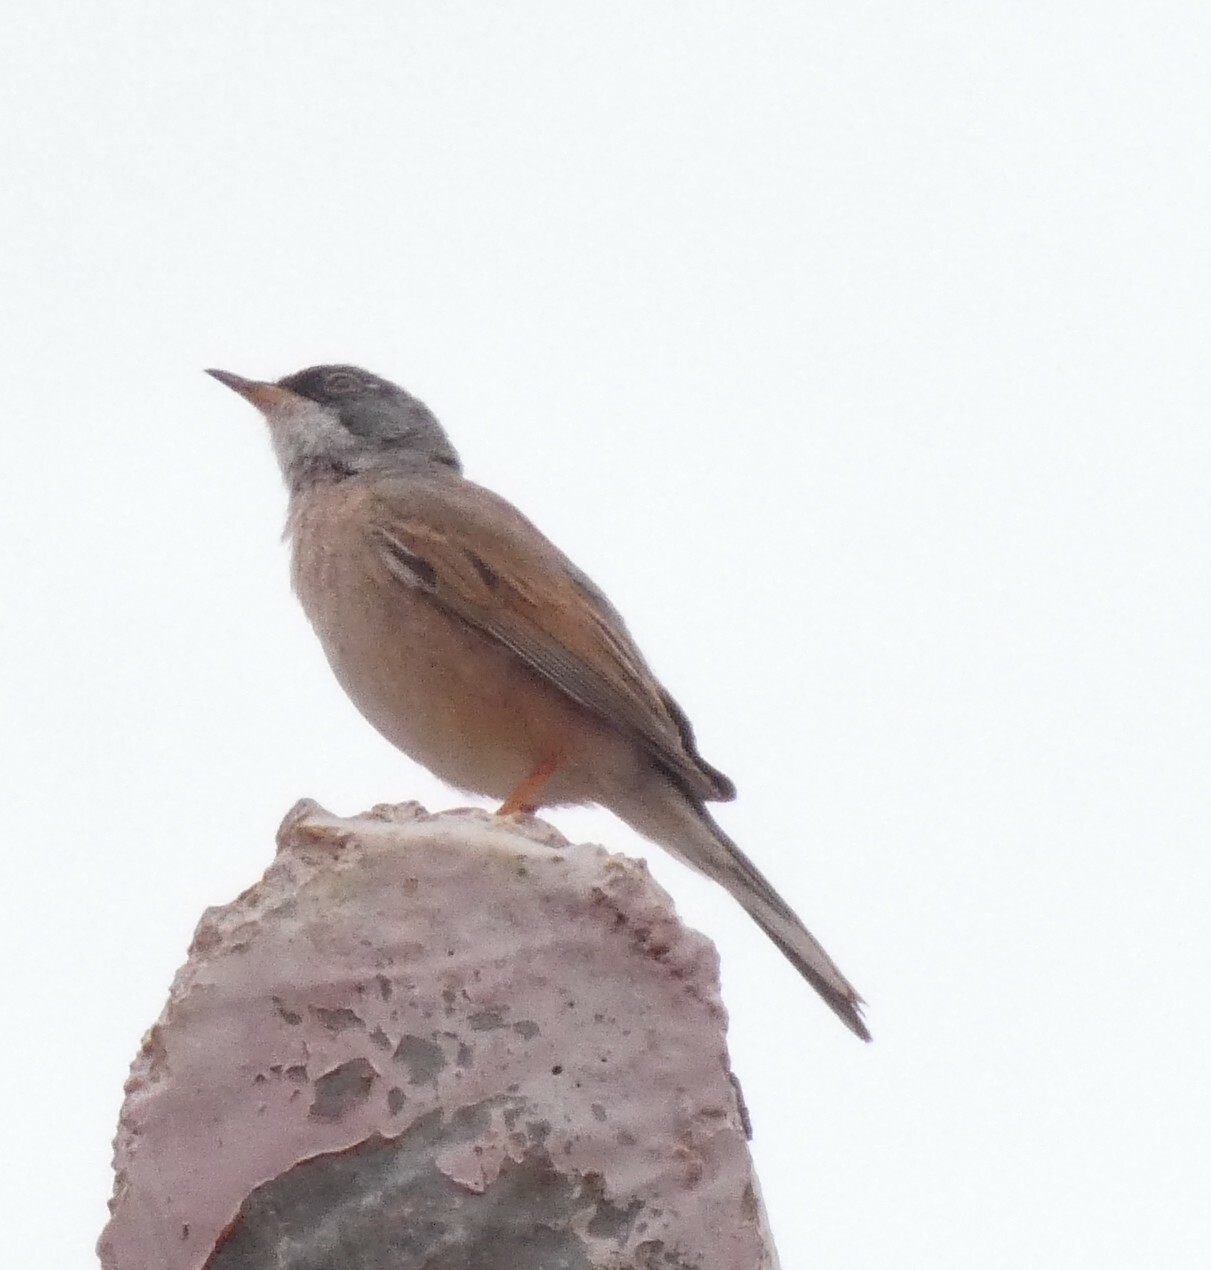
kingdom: Animalia
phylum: Chordata
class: Aves
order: Passeriformes
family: Sylviidae
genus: Sylvia
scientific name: Sylvia communis
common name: Common whitethroat
